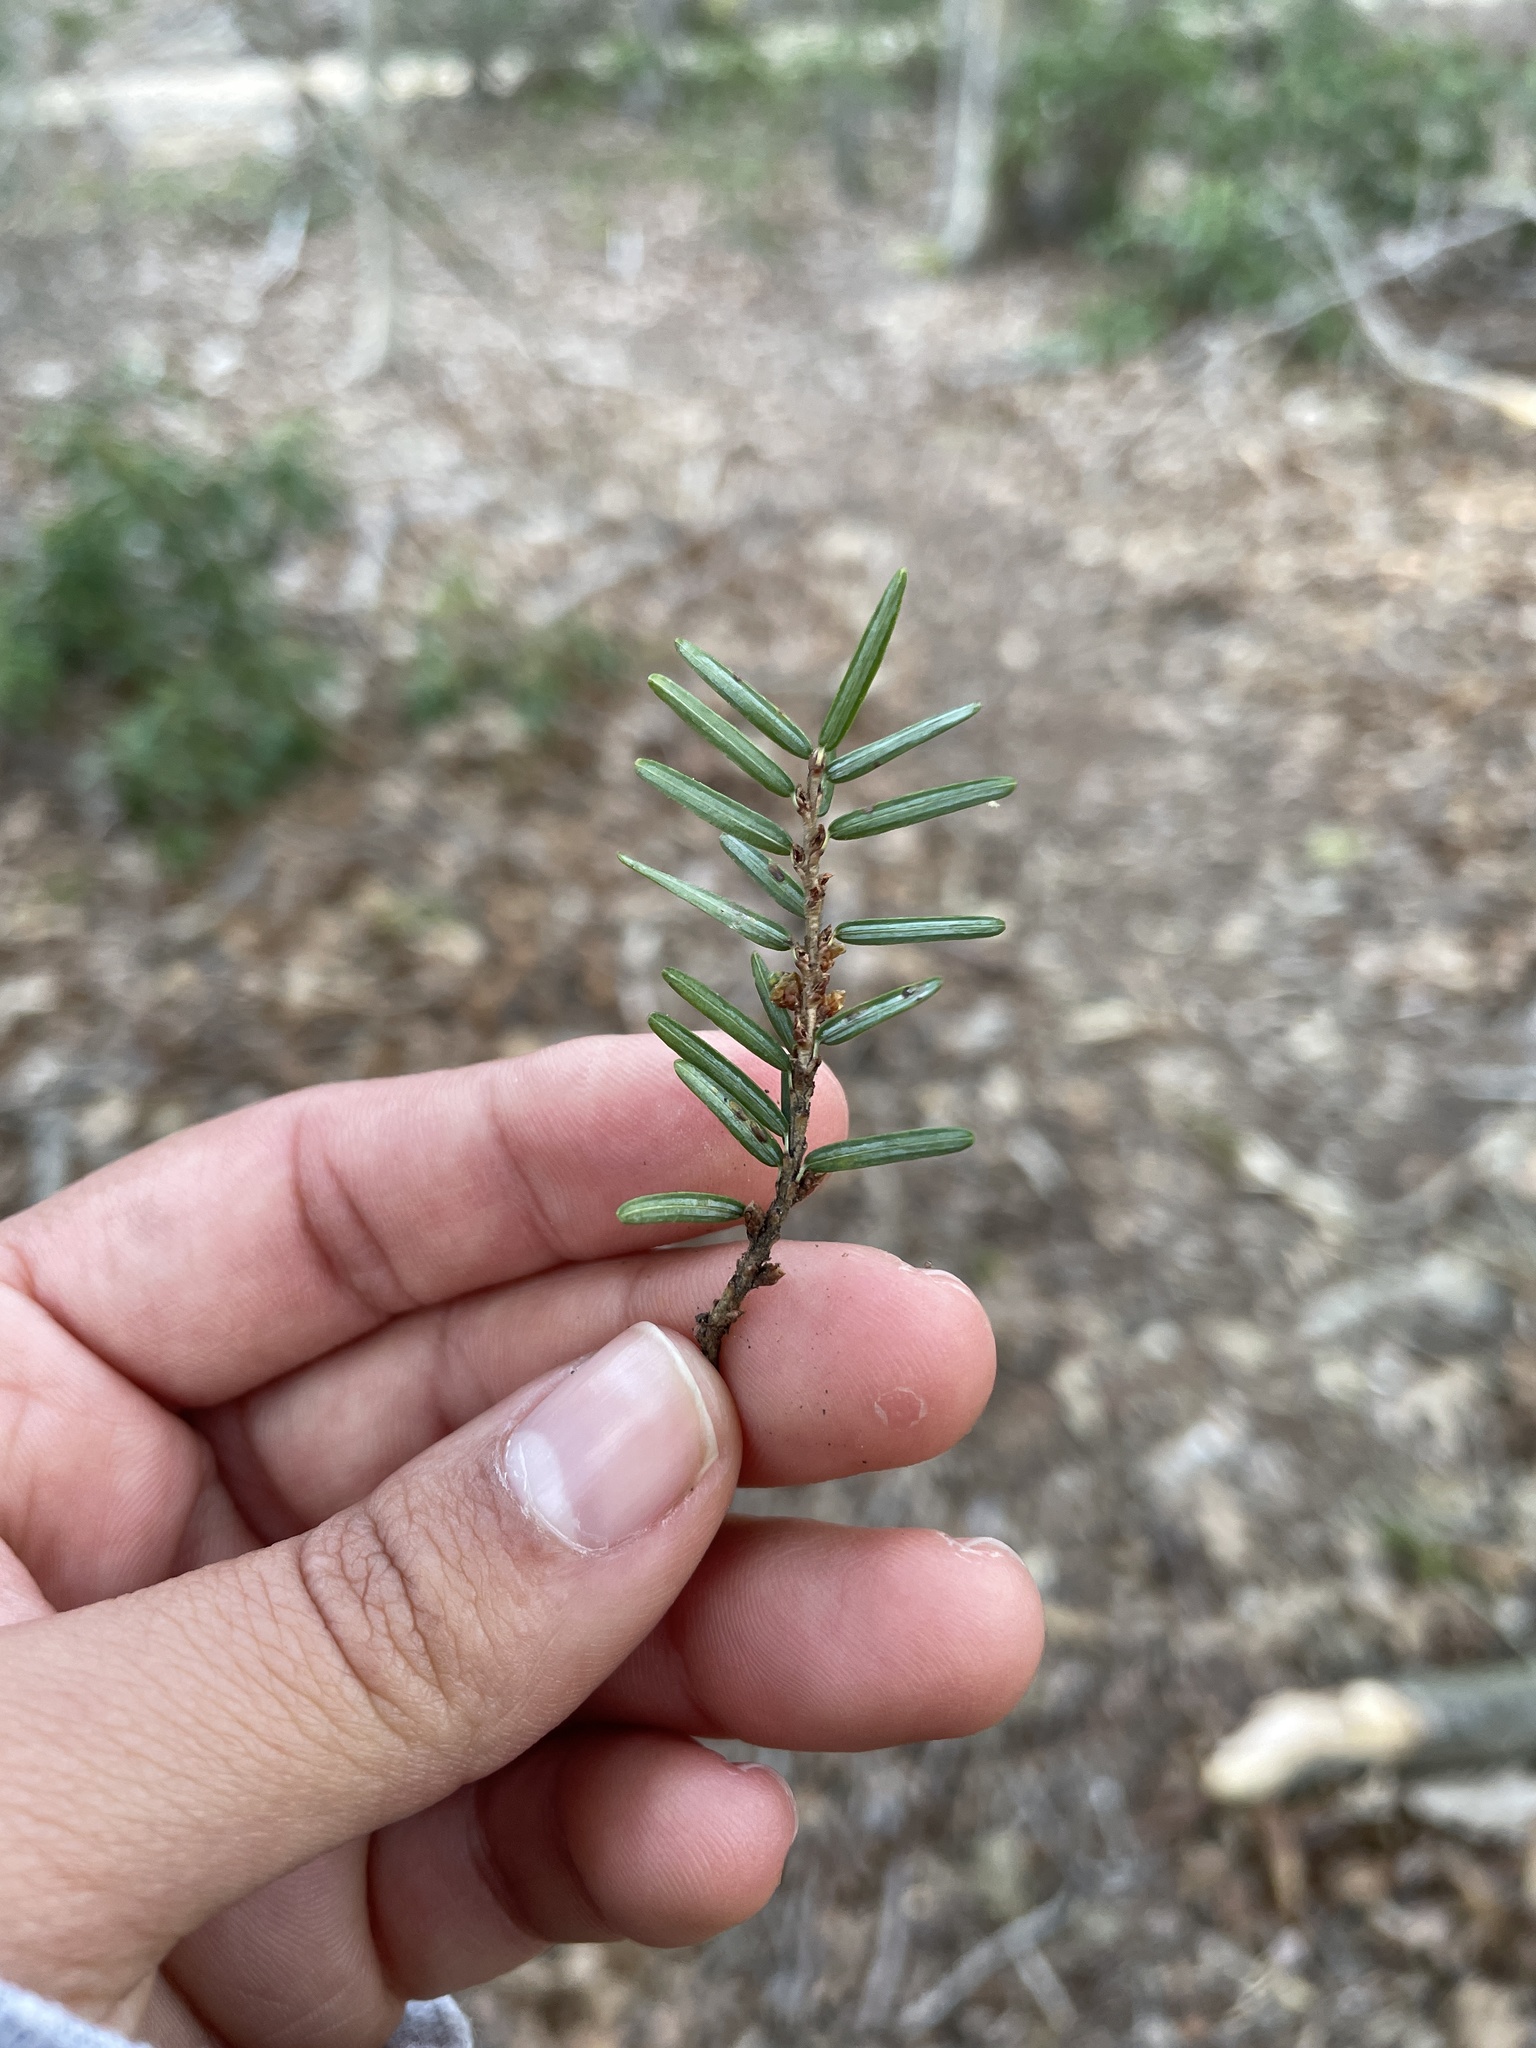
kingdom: Plantae
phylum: Tracheophyta
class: Pinopsida
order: Pinales
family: Pinaceae
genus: Tsuga
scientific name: Tsuga canadensis
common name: Eastern hemlock
